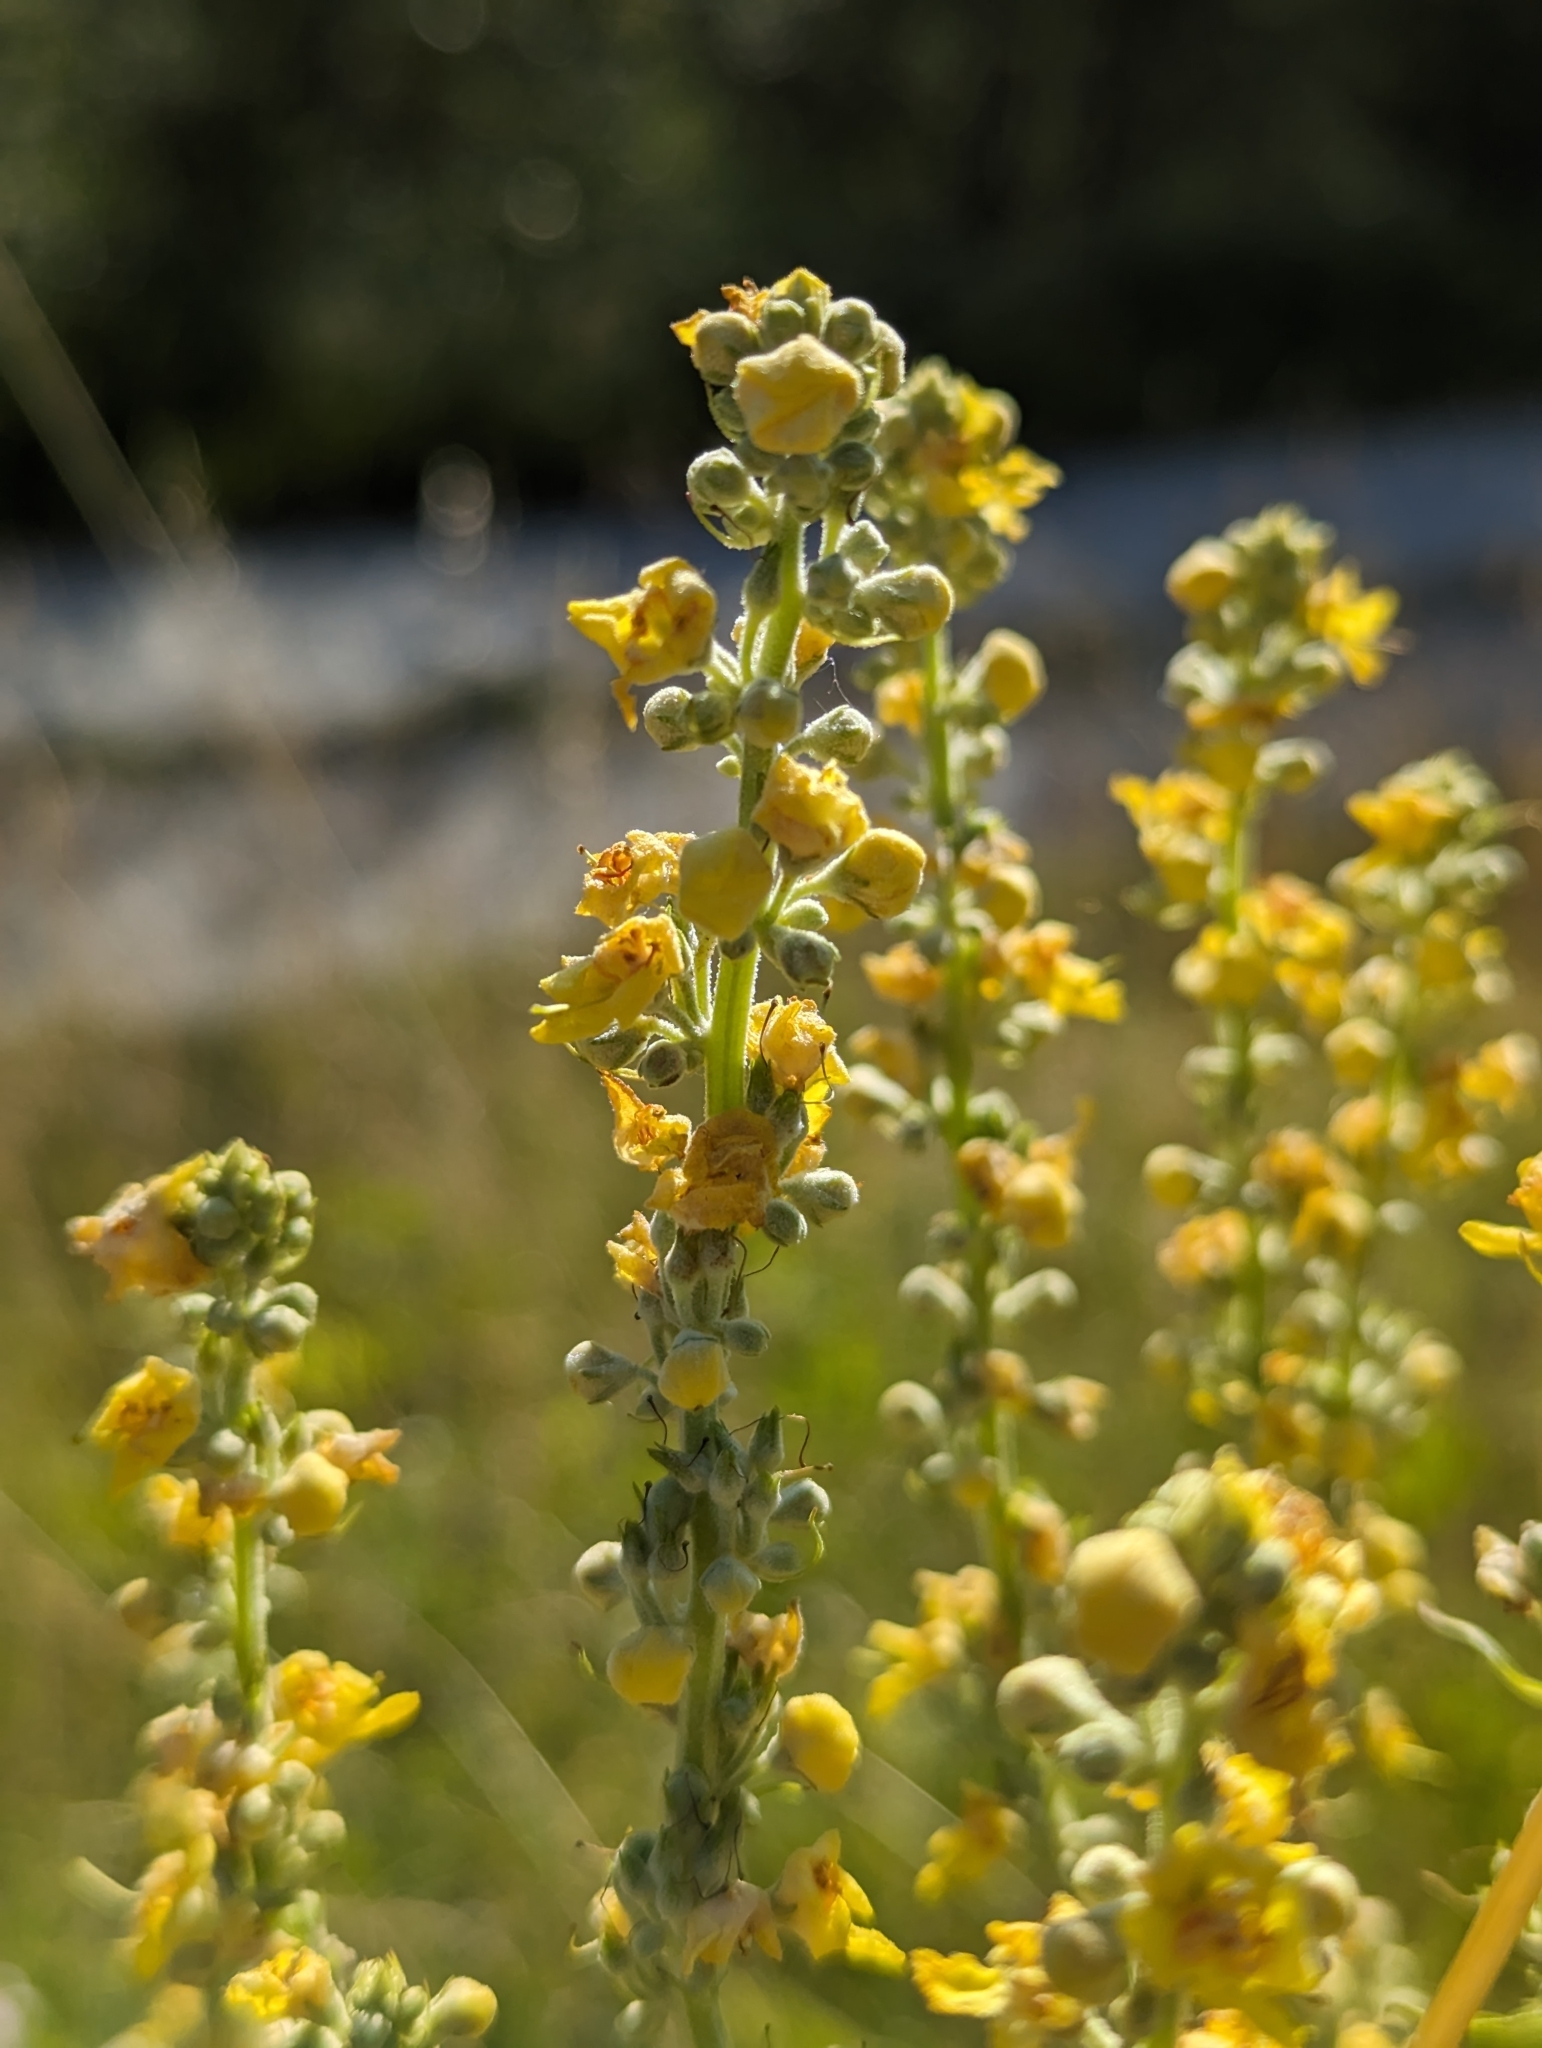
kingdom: Plantae
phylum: Tracheophyta
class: Magnoliopsida
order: Lamiales
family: Scrophulariaceae
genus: Verbascum
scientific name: Verbascum lychnitis
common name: White mullein
